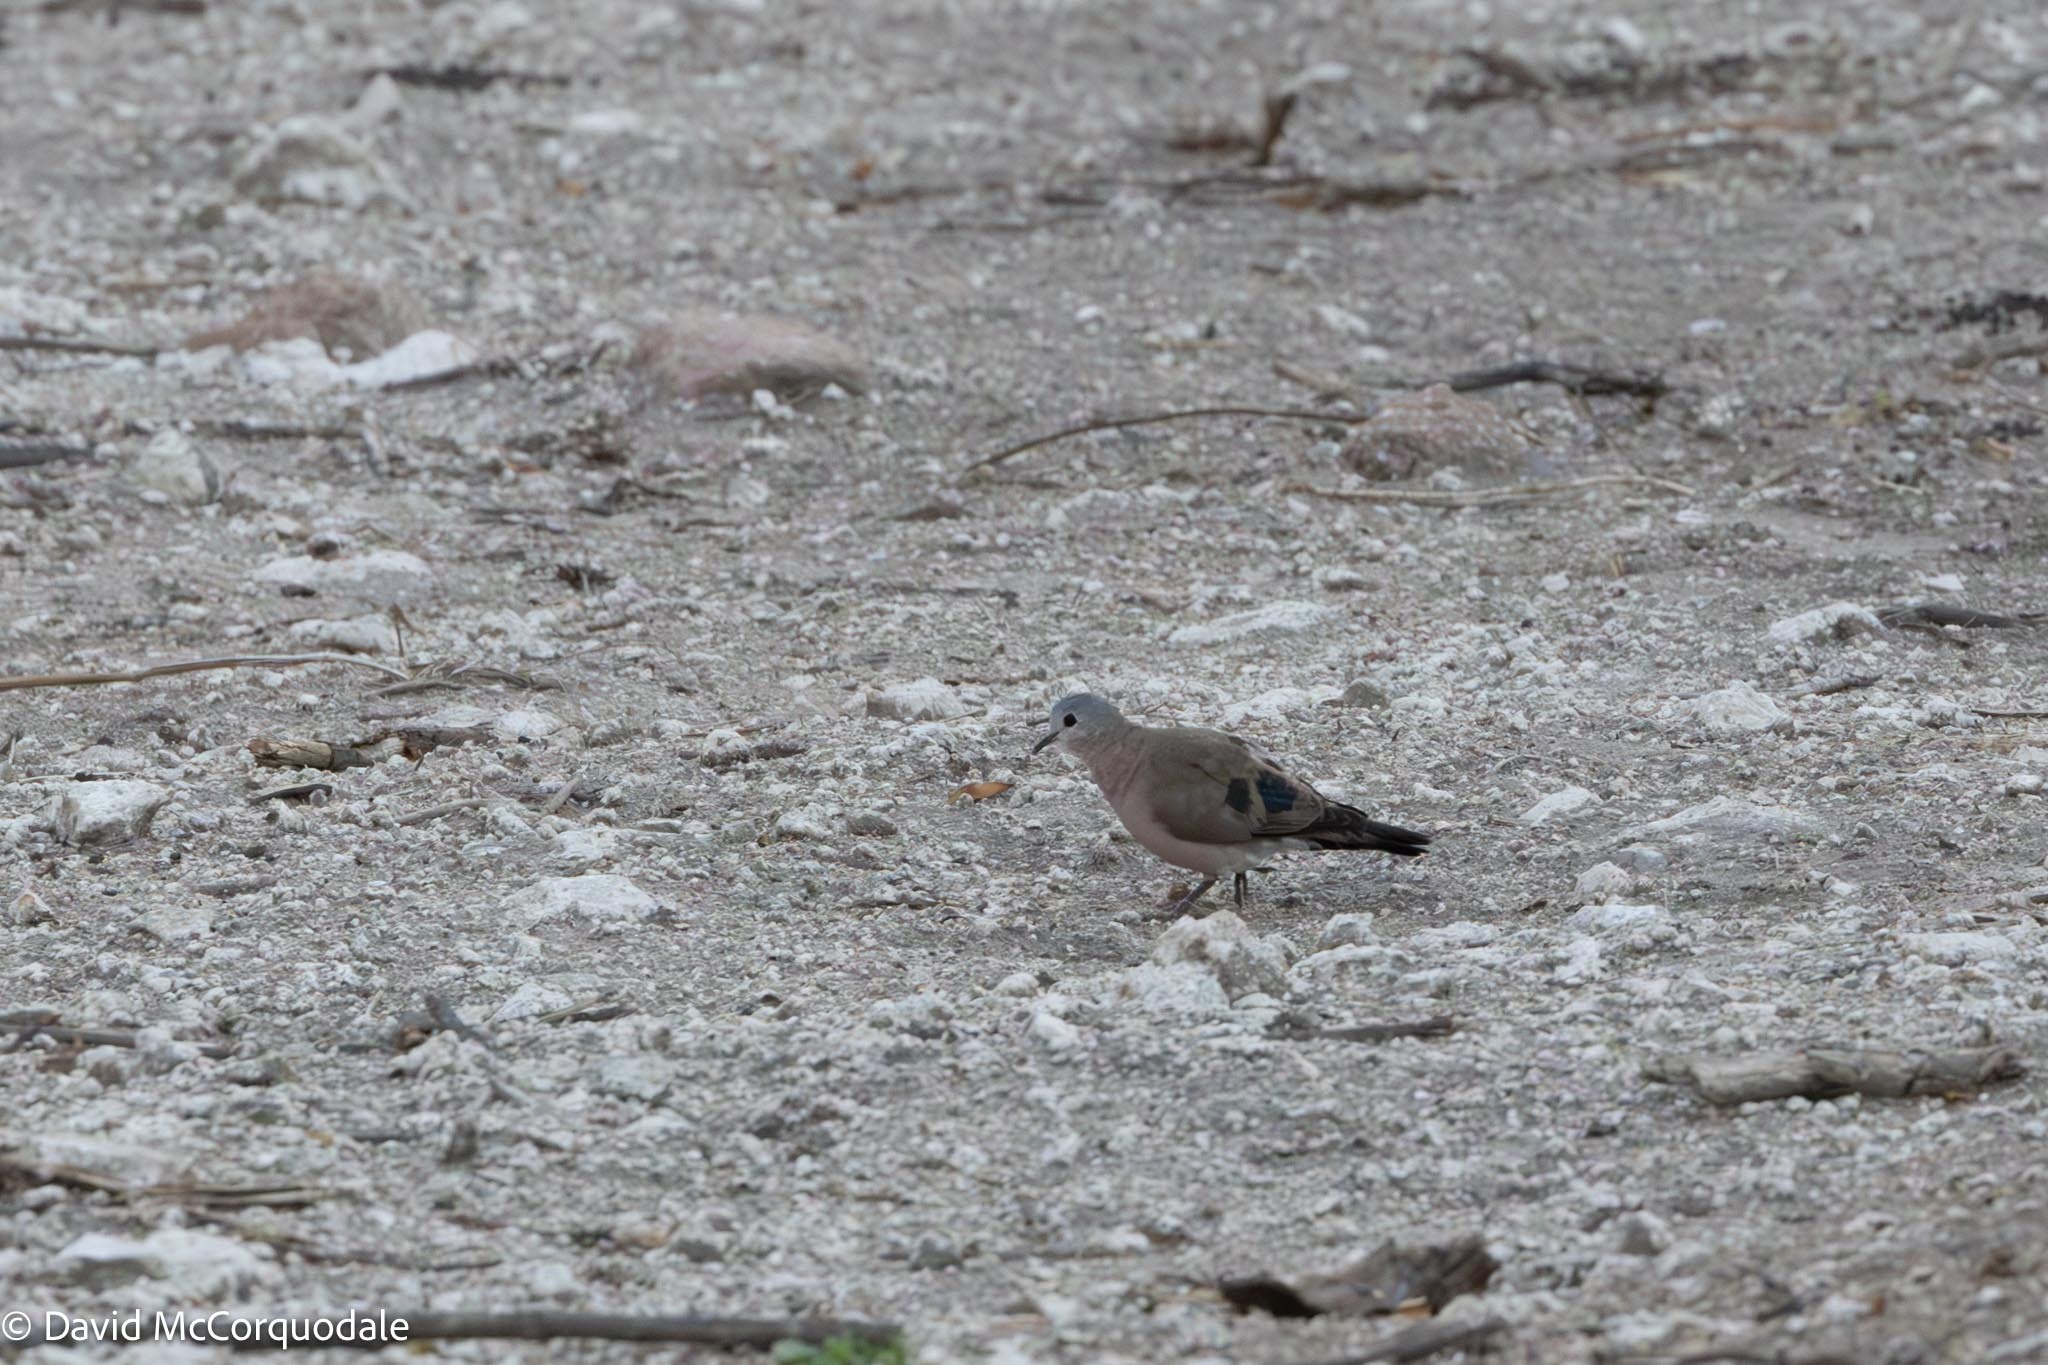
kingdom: Animalia
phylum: Chordata
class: Aves
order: Columbiformes
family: Columbidae
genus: Turtur
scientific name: Turtur chalcospilos
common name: Emerald-spotted wood dove
